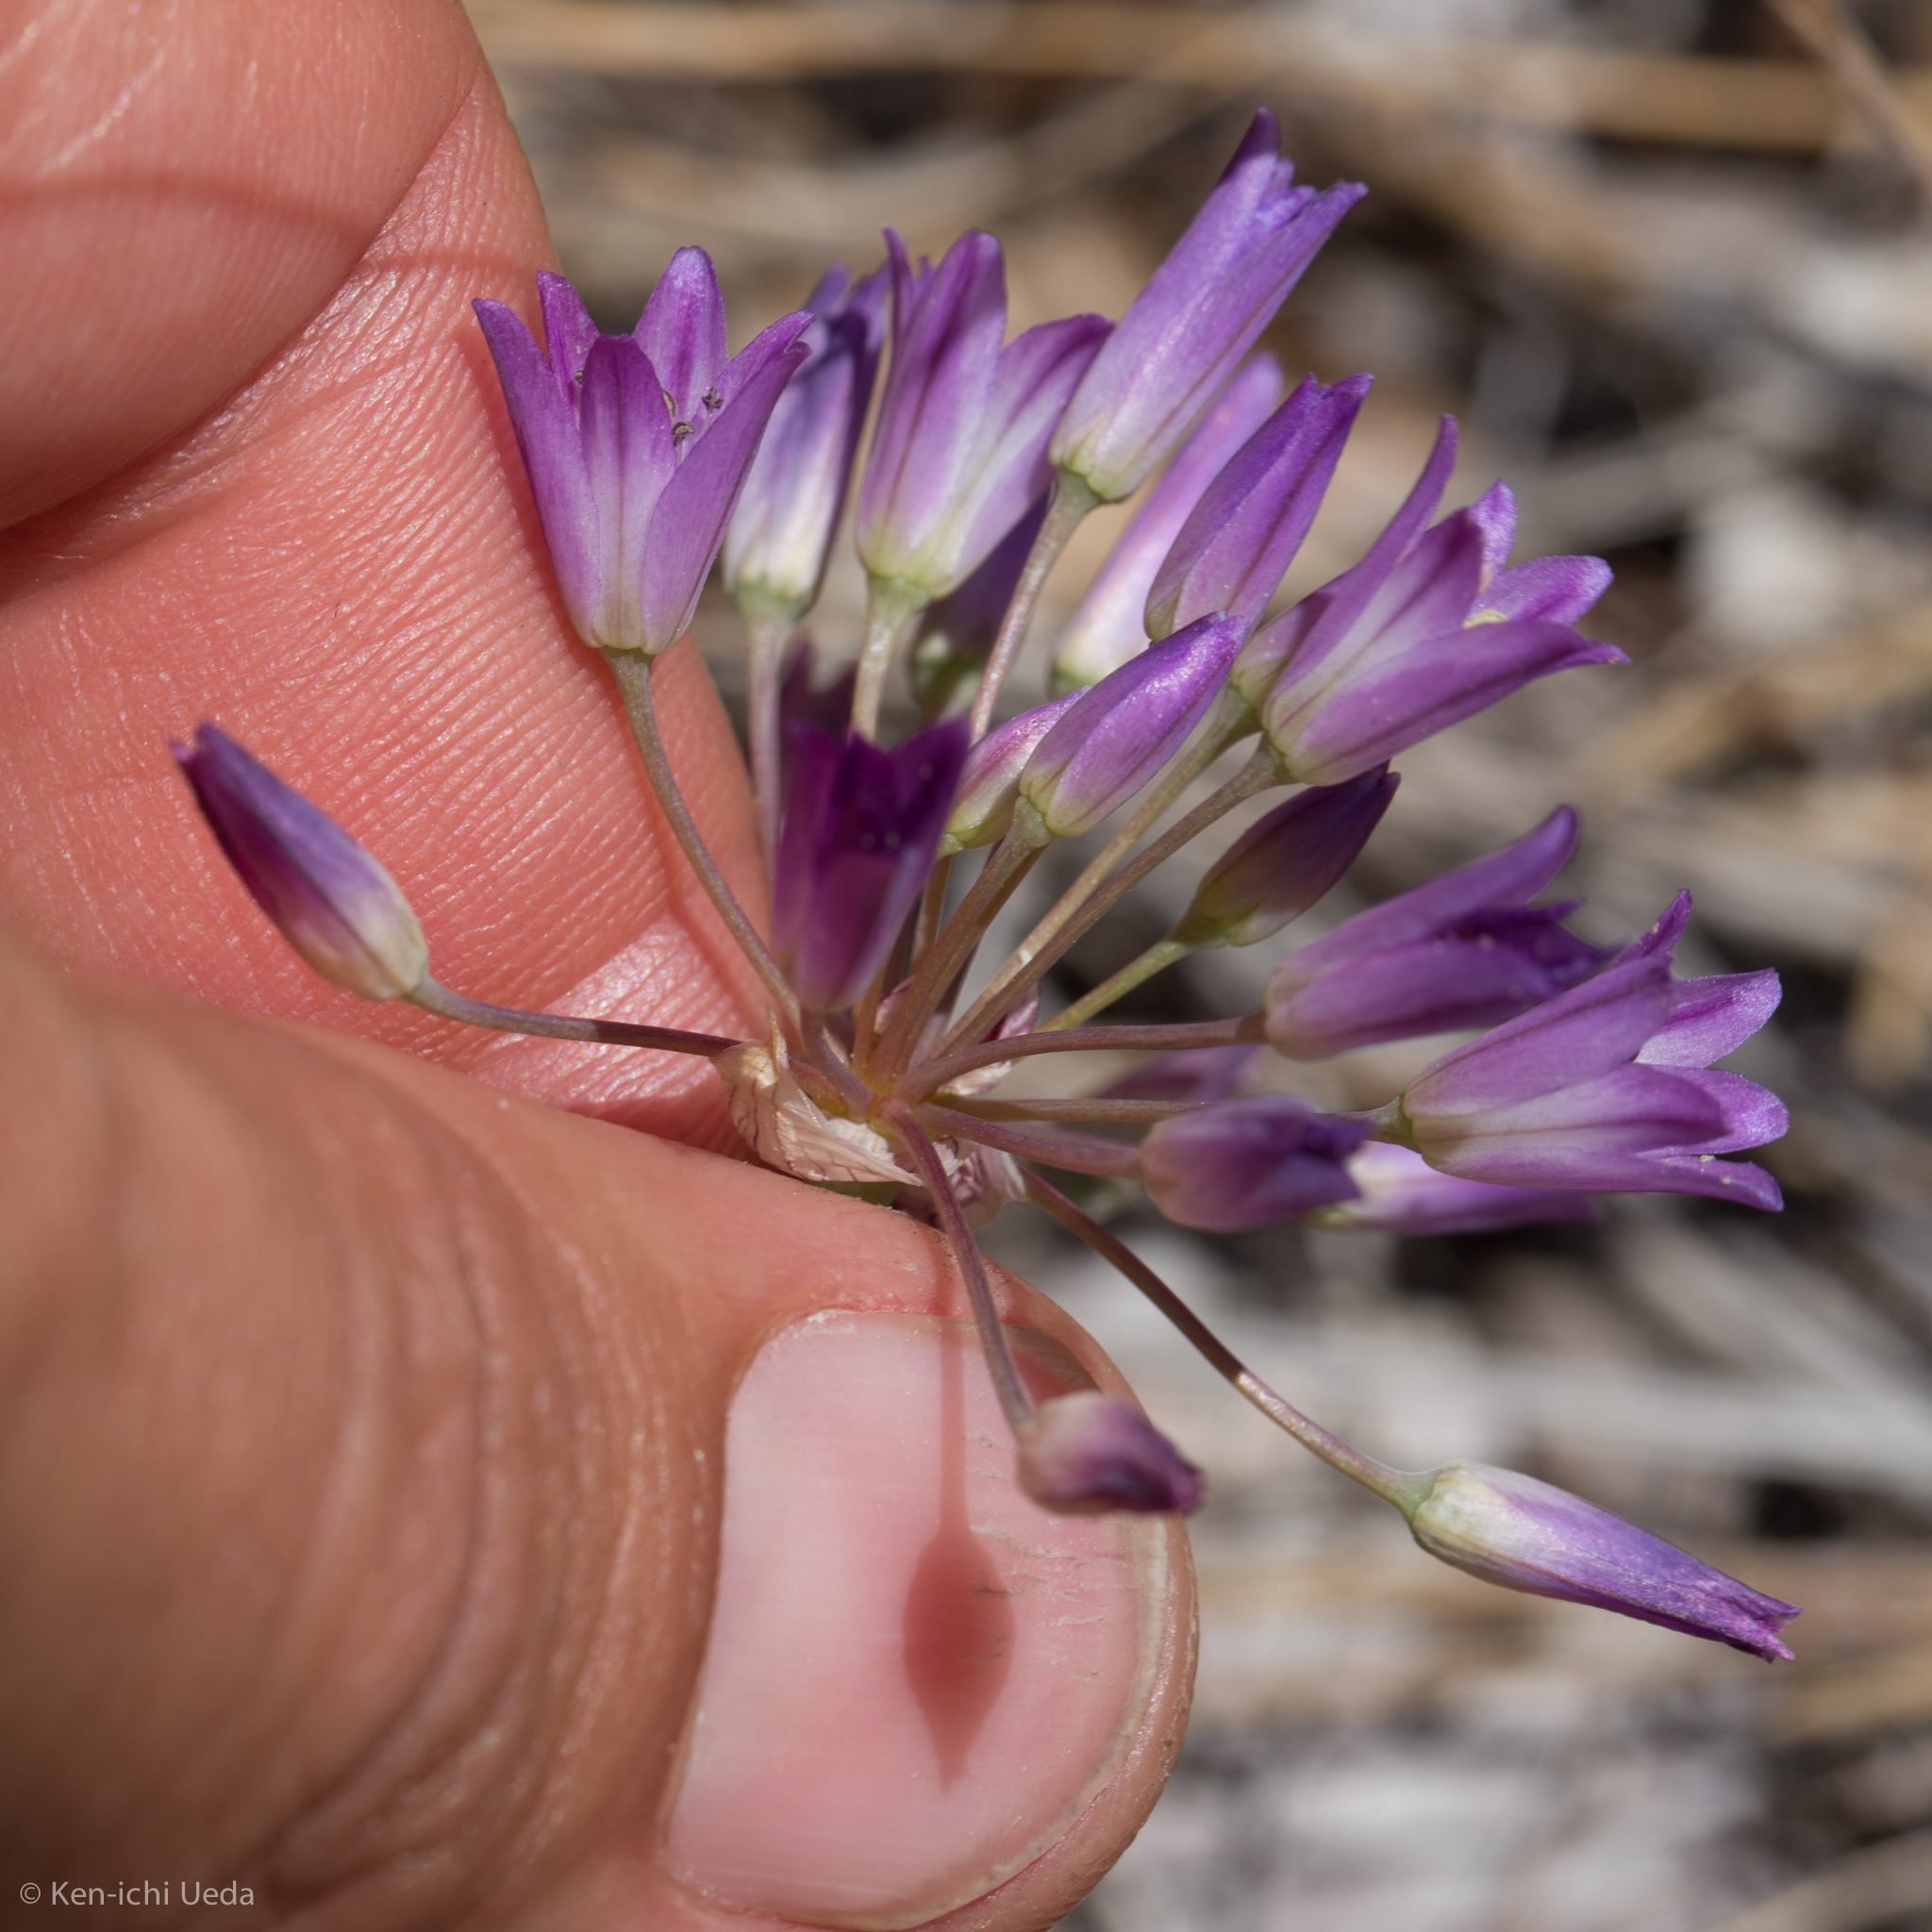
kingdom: Plantae
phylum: Tracheophyta
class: Liliopsida
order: Asparagales
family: Amaryllidaceae
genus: Allium
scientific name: Allium fimbriatum
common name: Fringed onion
